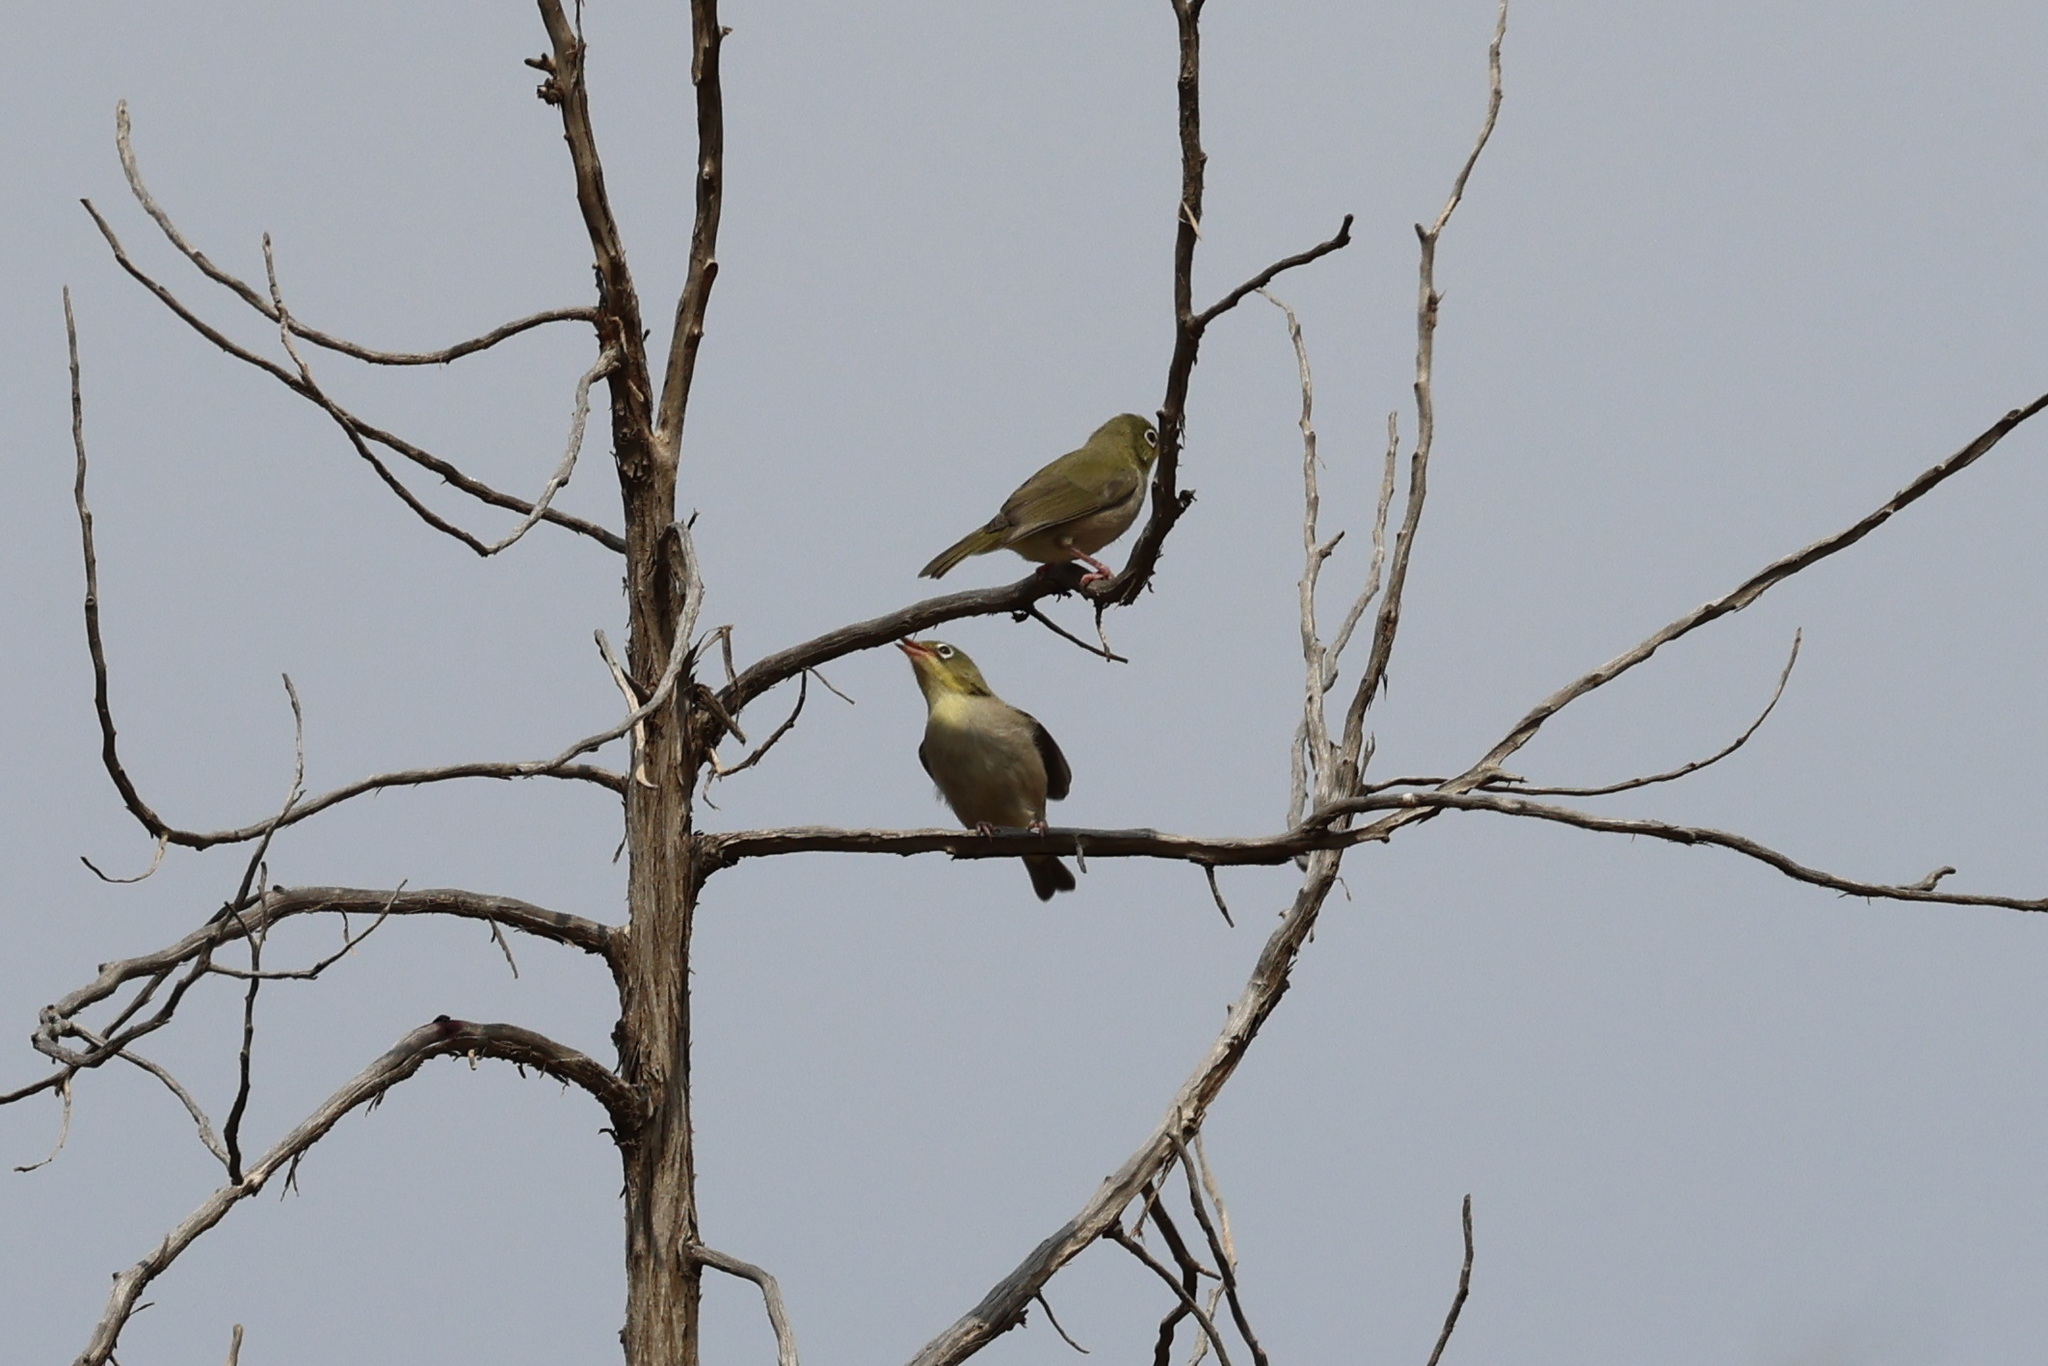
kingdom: Animalia
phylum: Chordata
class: Aves
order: Passeriformes
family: Zosteropidae
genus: Zosterops
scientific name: Zosterops abyssinicus
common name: Abyssinian white-eye
